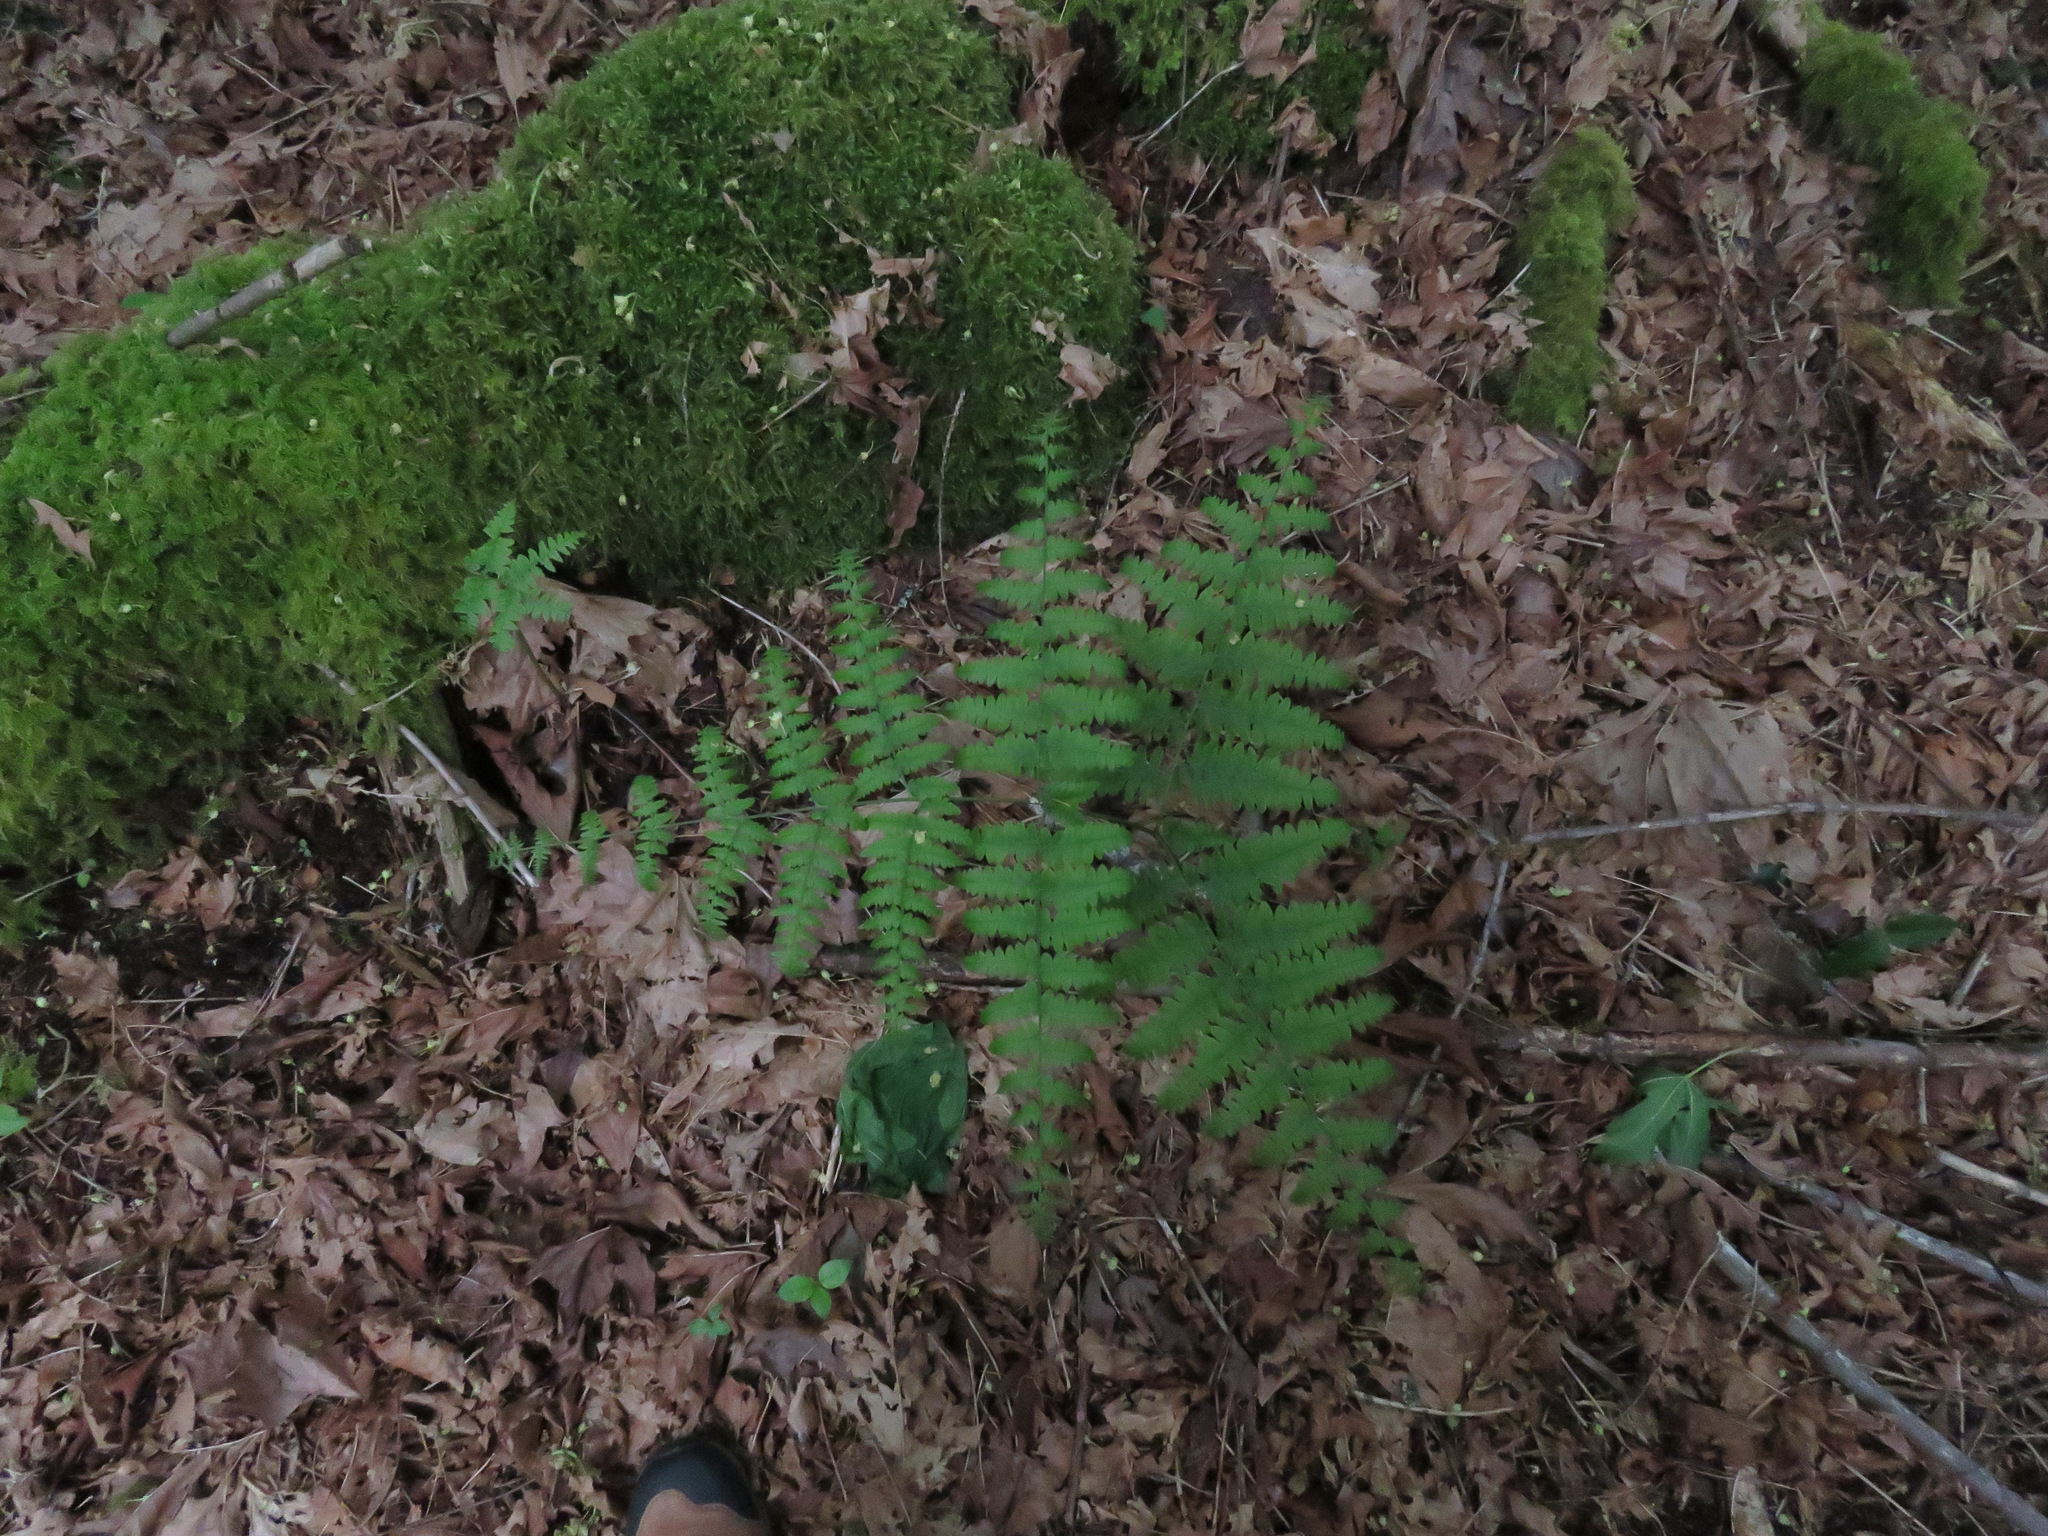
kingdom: Plantae
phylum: Tracheophyta
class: Polypodiopsida
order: Polypodiales
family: Dennstaedtiaceae
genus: Pteridium
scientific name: Pteridium aquilinum
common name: Bracken
